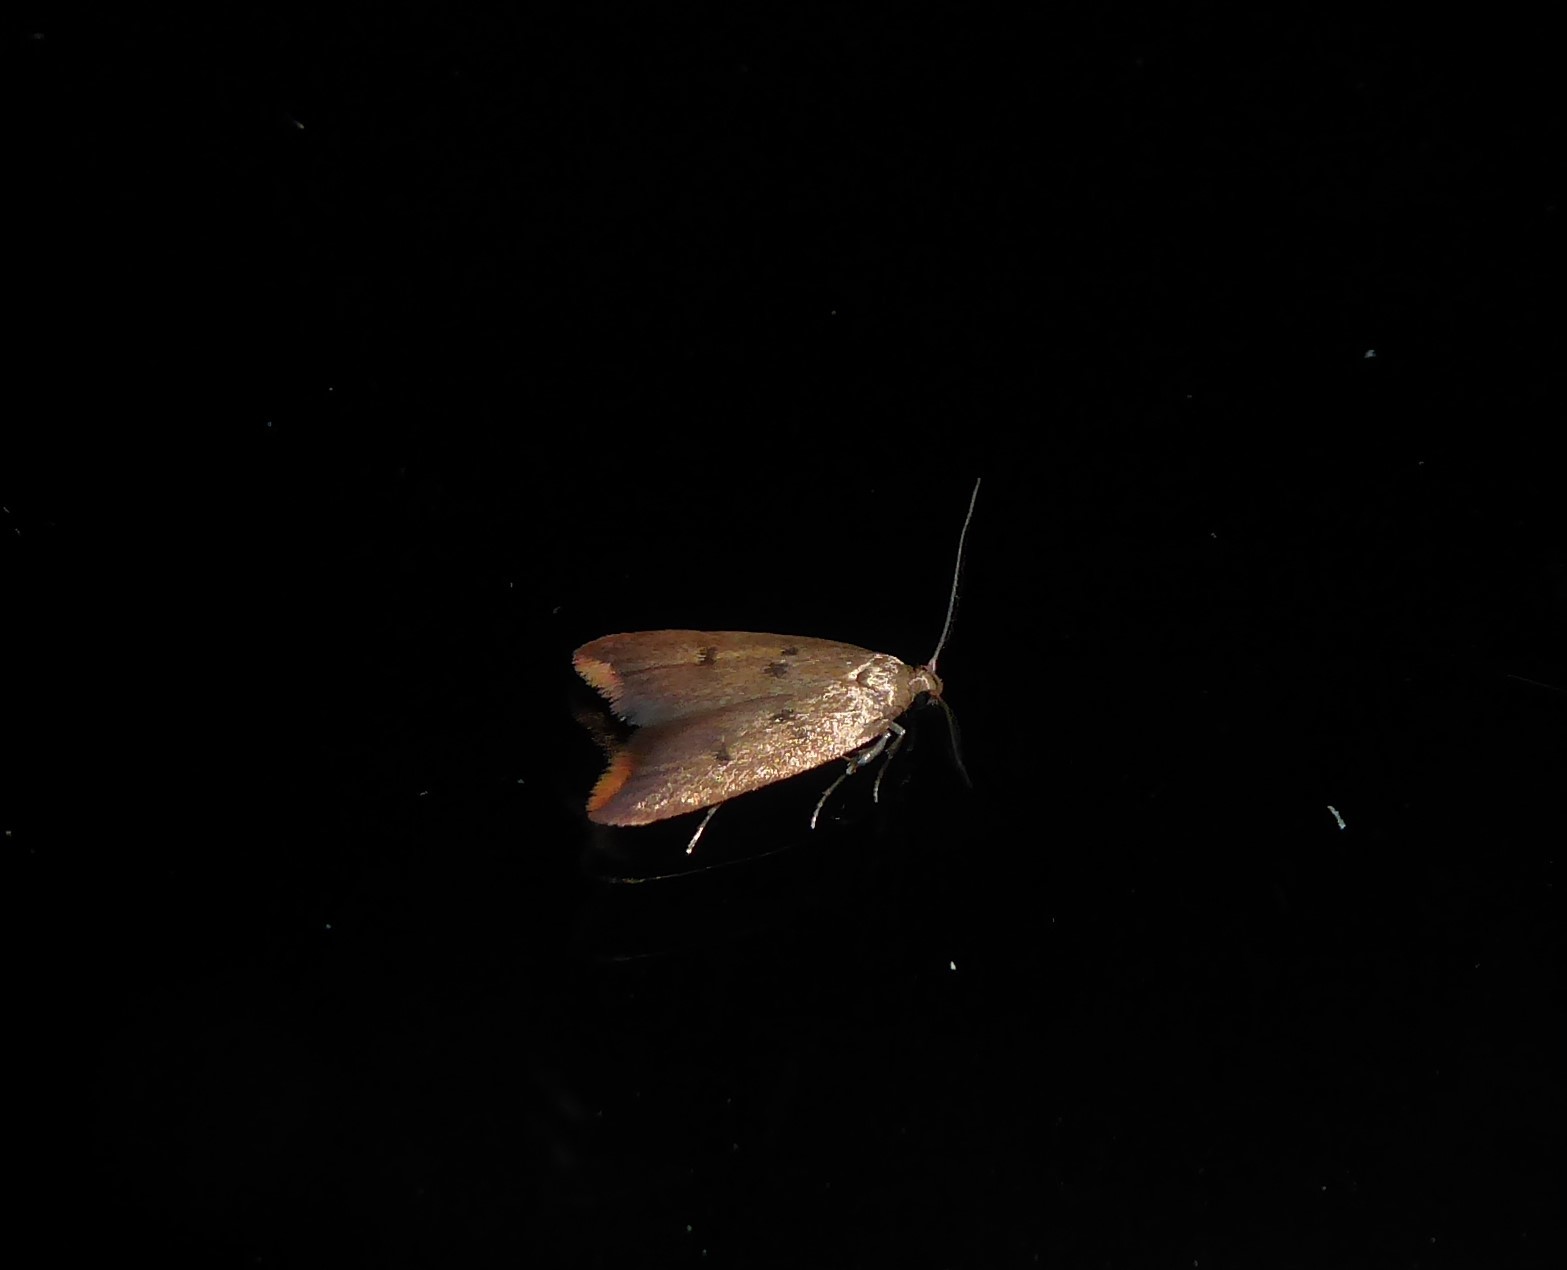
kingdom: Animalia
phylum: Arthropoda
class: Insecta
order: Lepidoptera
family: Oecophoridae
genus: Tachystola
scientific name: Tachystola acroxantha
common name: Ruddy streak
